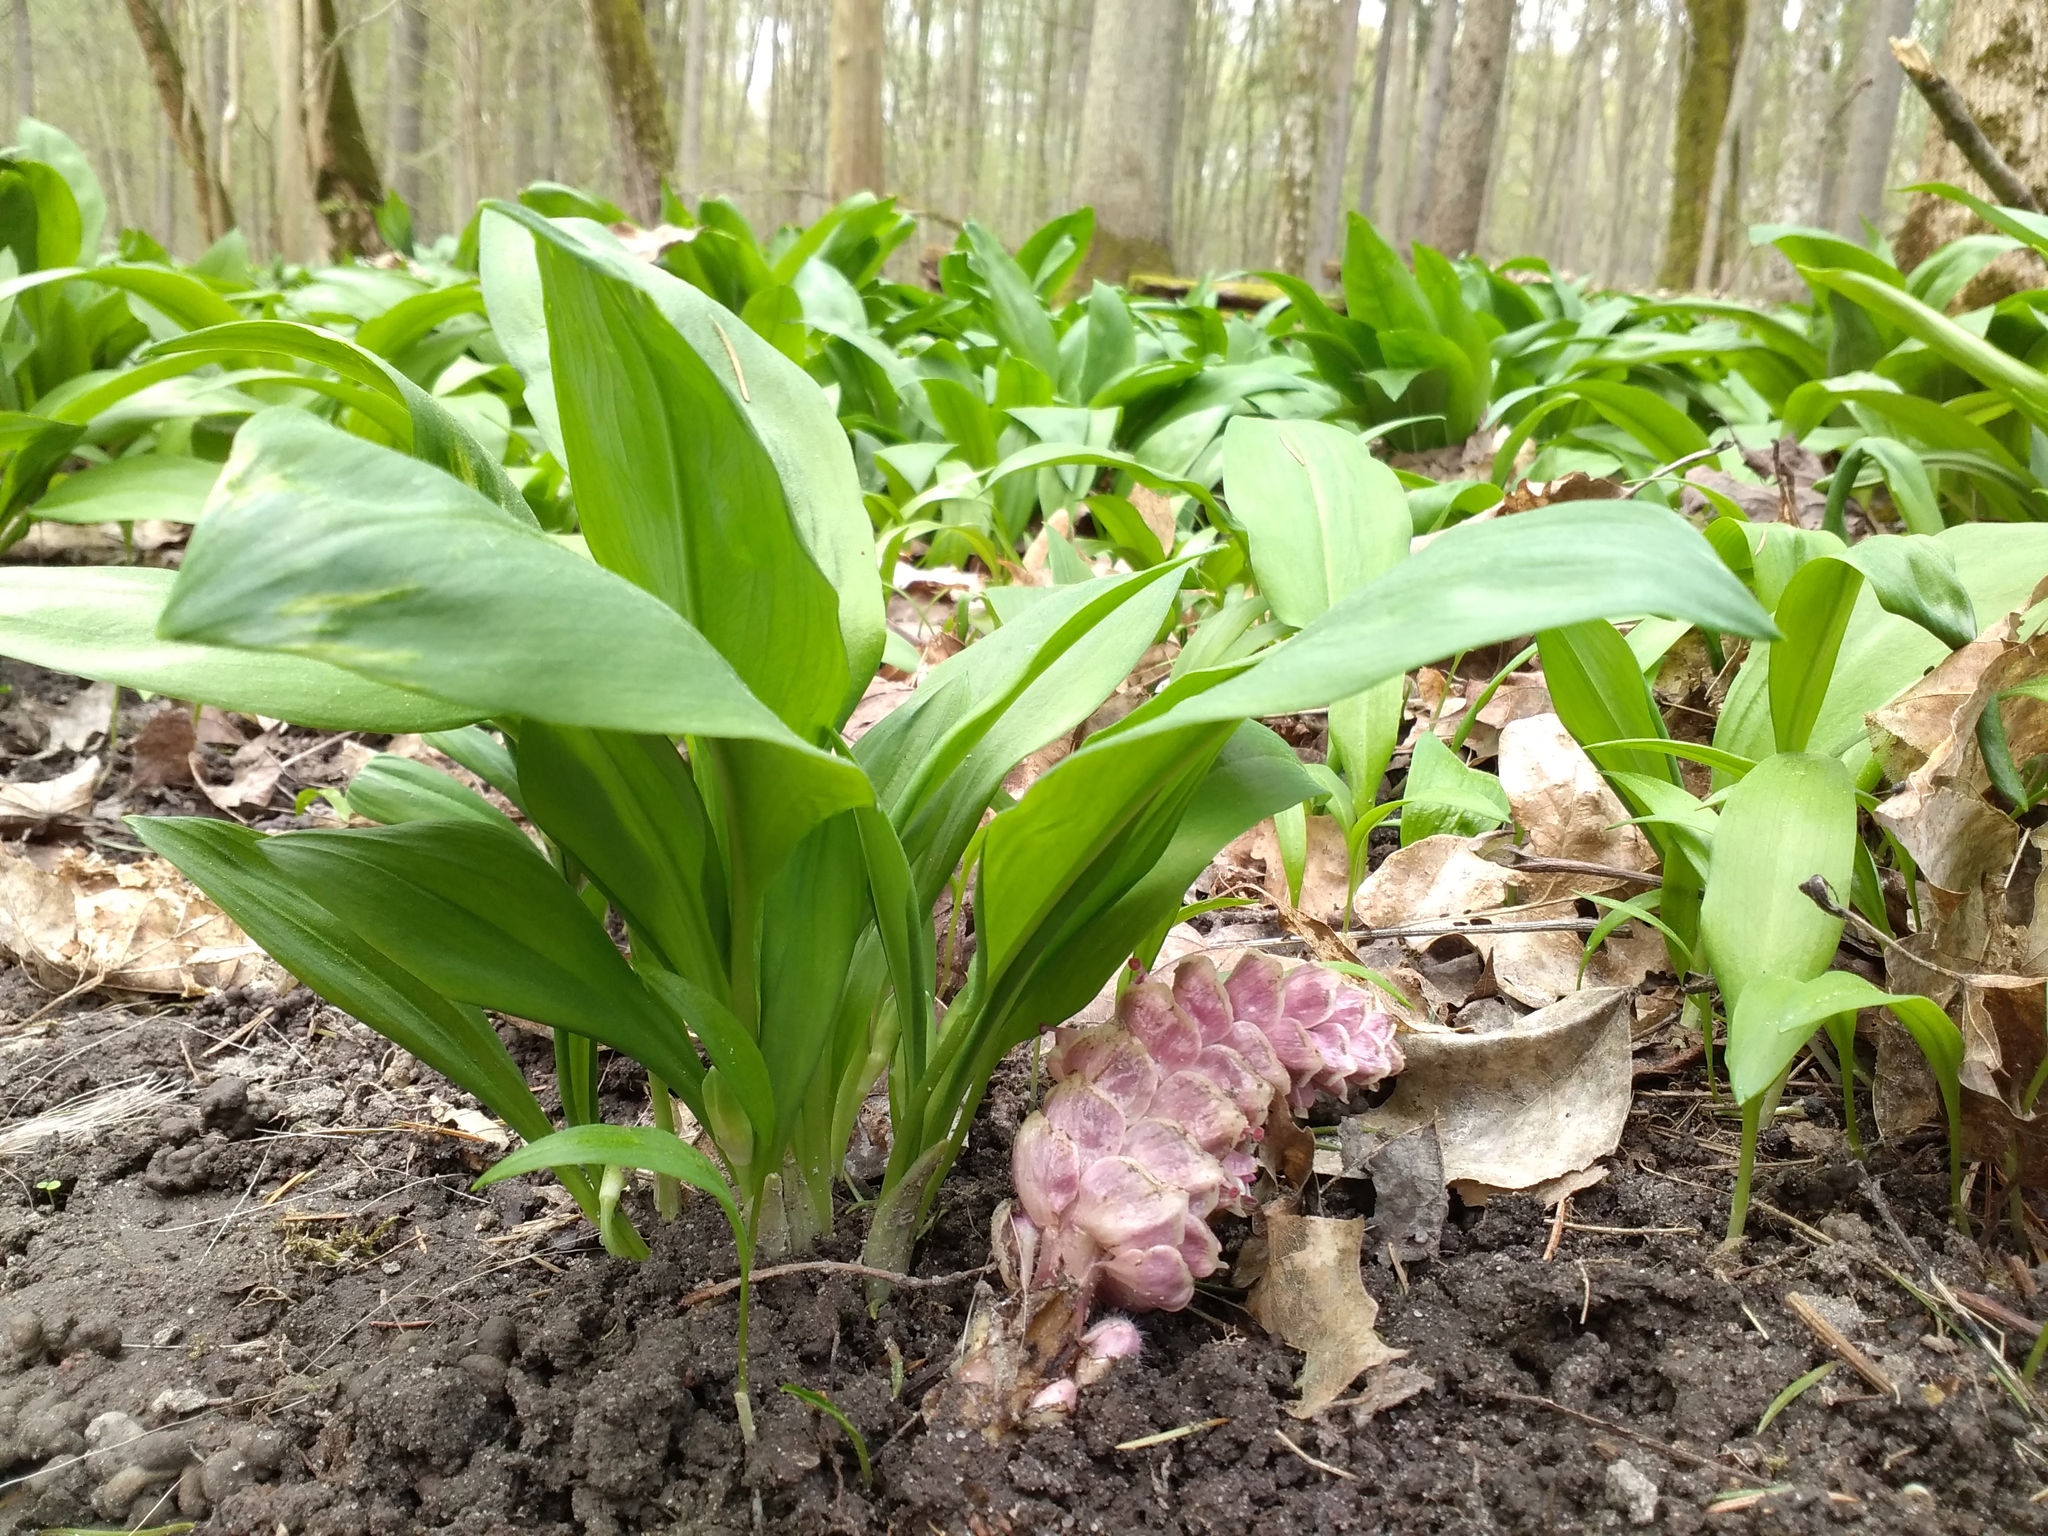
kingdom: Plantae
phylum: Tracheophyta
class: Liliopsida
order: Asparagales
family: Amaryllidaceae
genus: Allium
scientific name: Allium ursinum
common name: Ramsons
